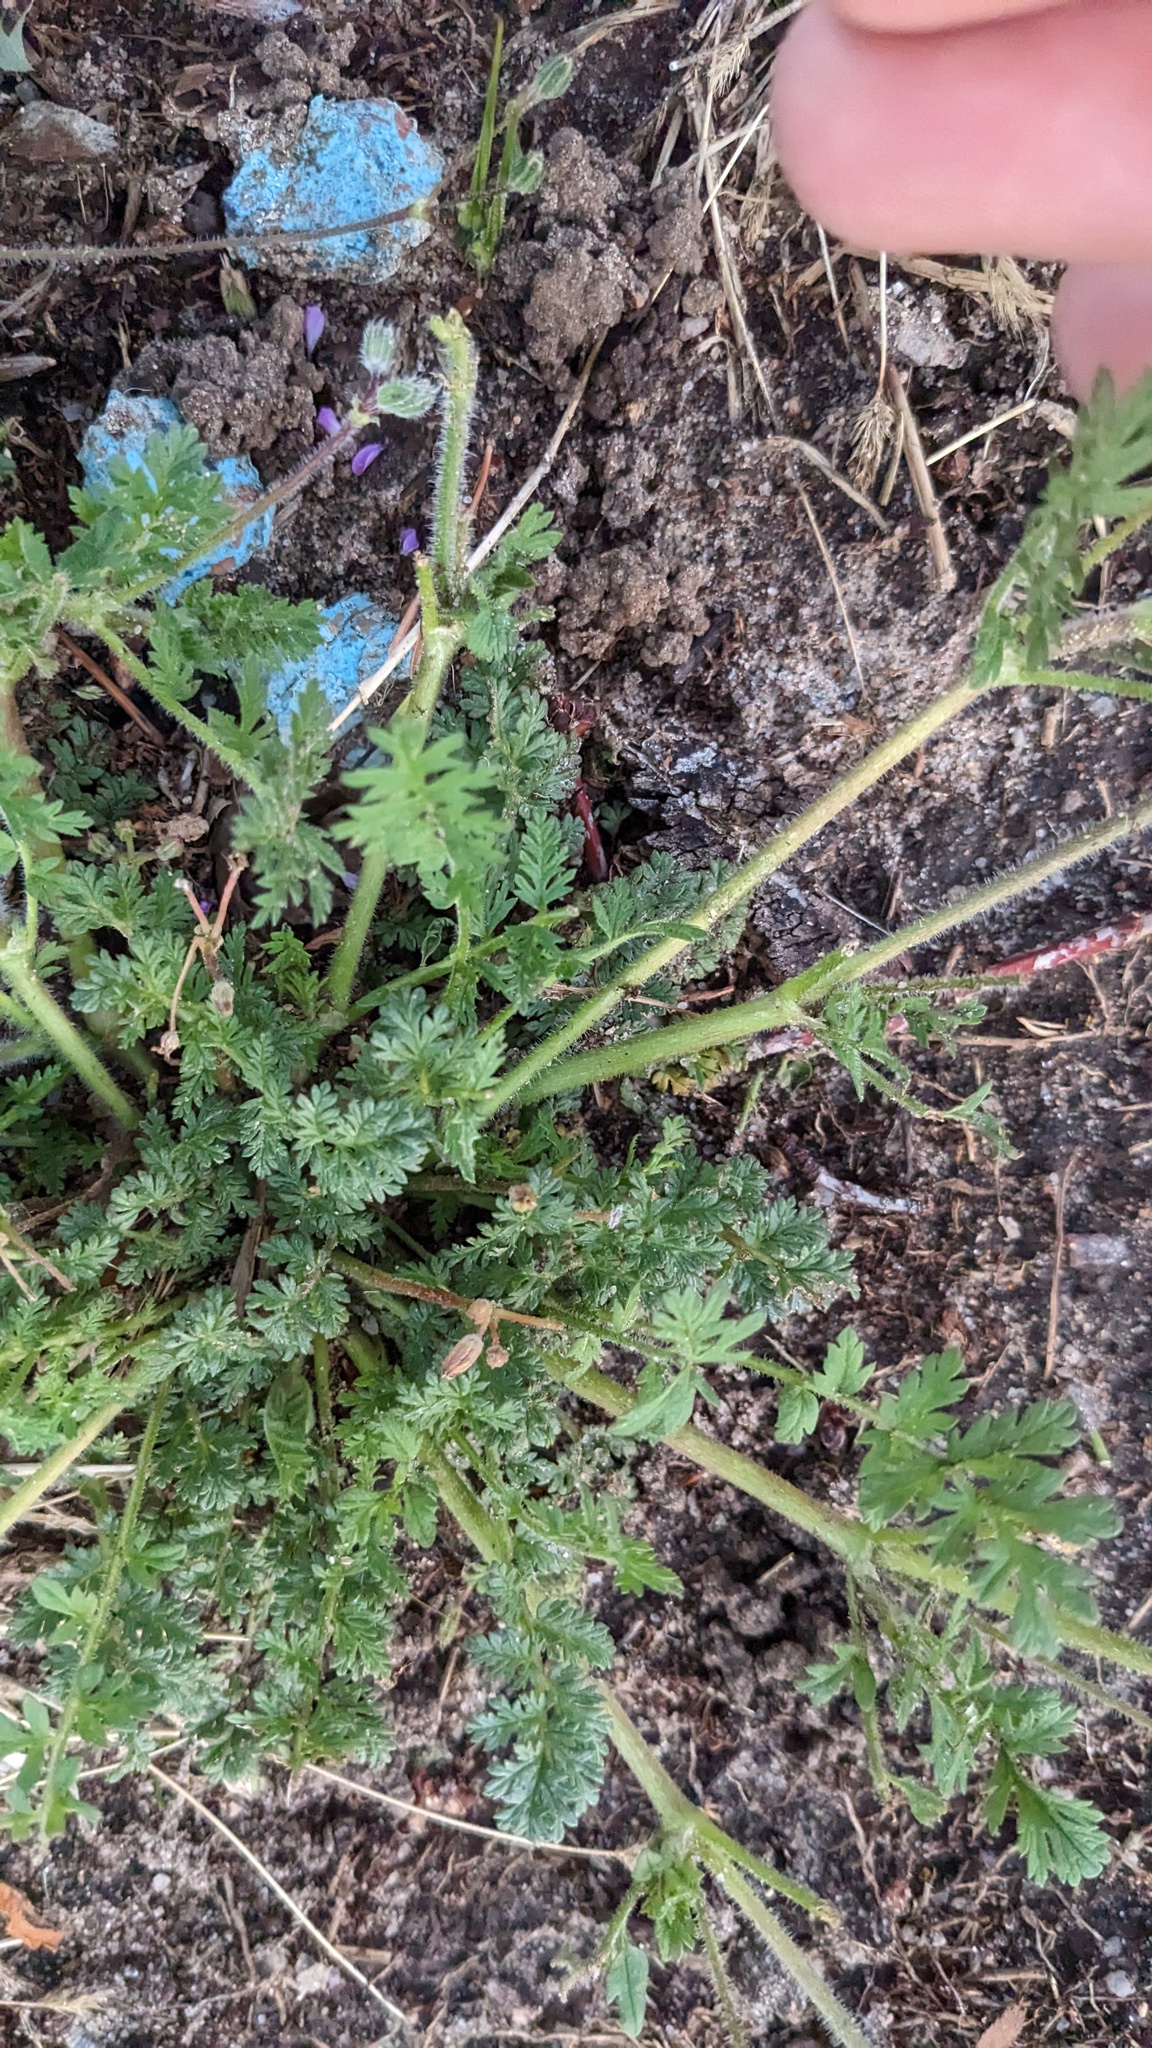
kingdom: Plantae
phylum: Tracheophyta
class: Magnoliopsida
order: Geraniales
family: Geraniaceae
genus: Erodium
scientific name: Erodium cicutarium
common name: Common stork's-bill
